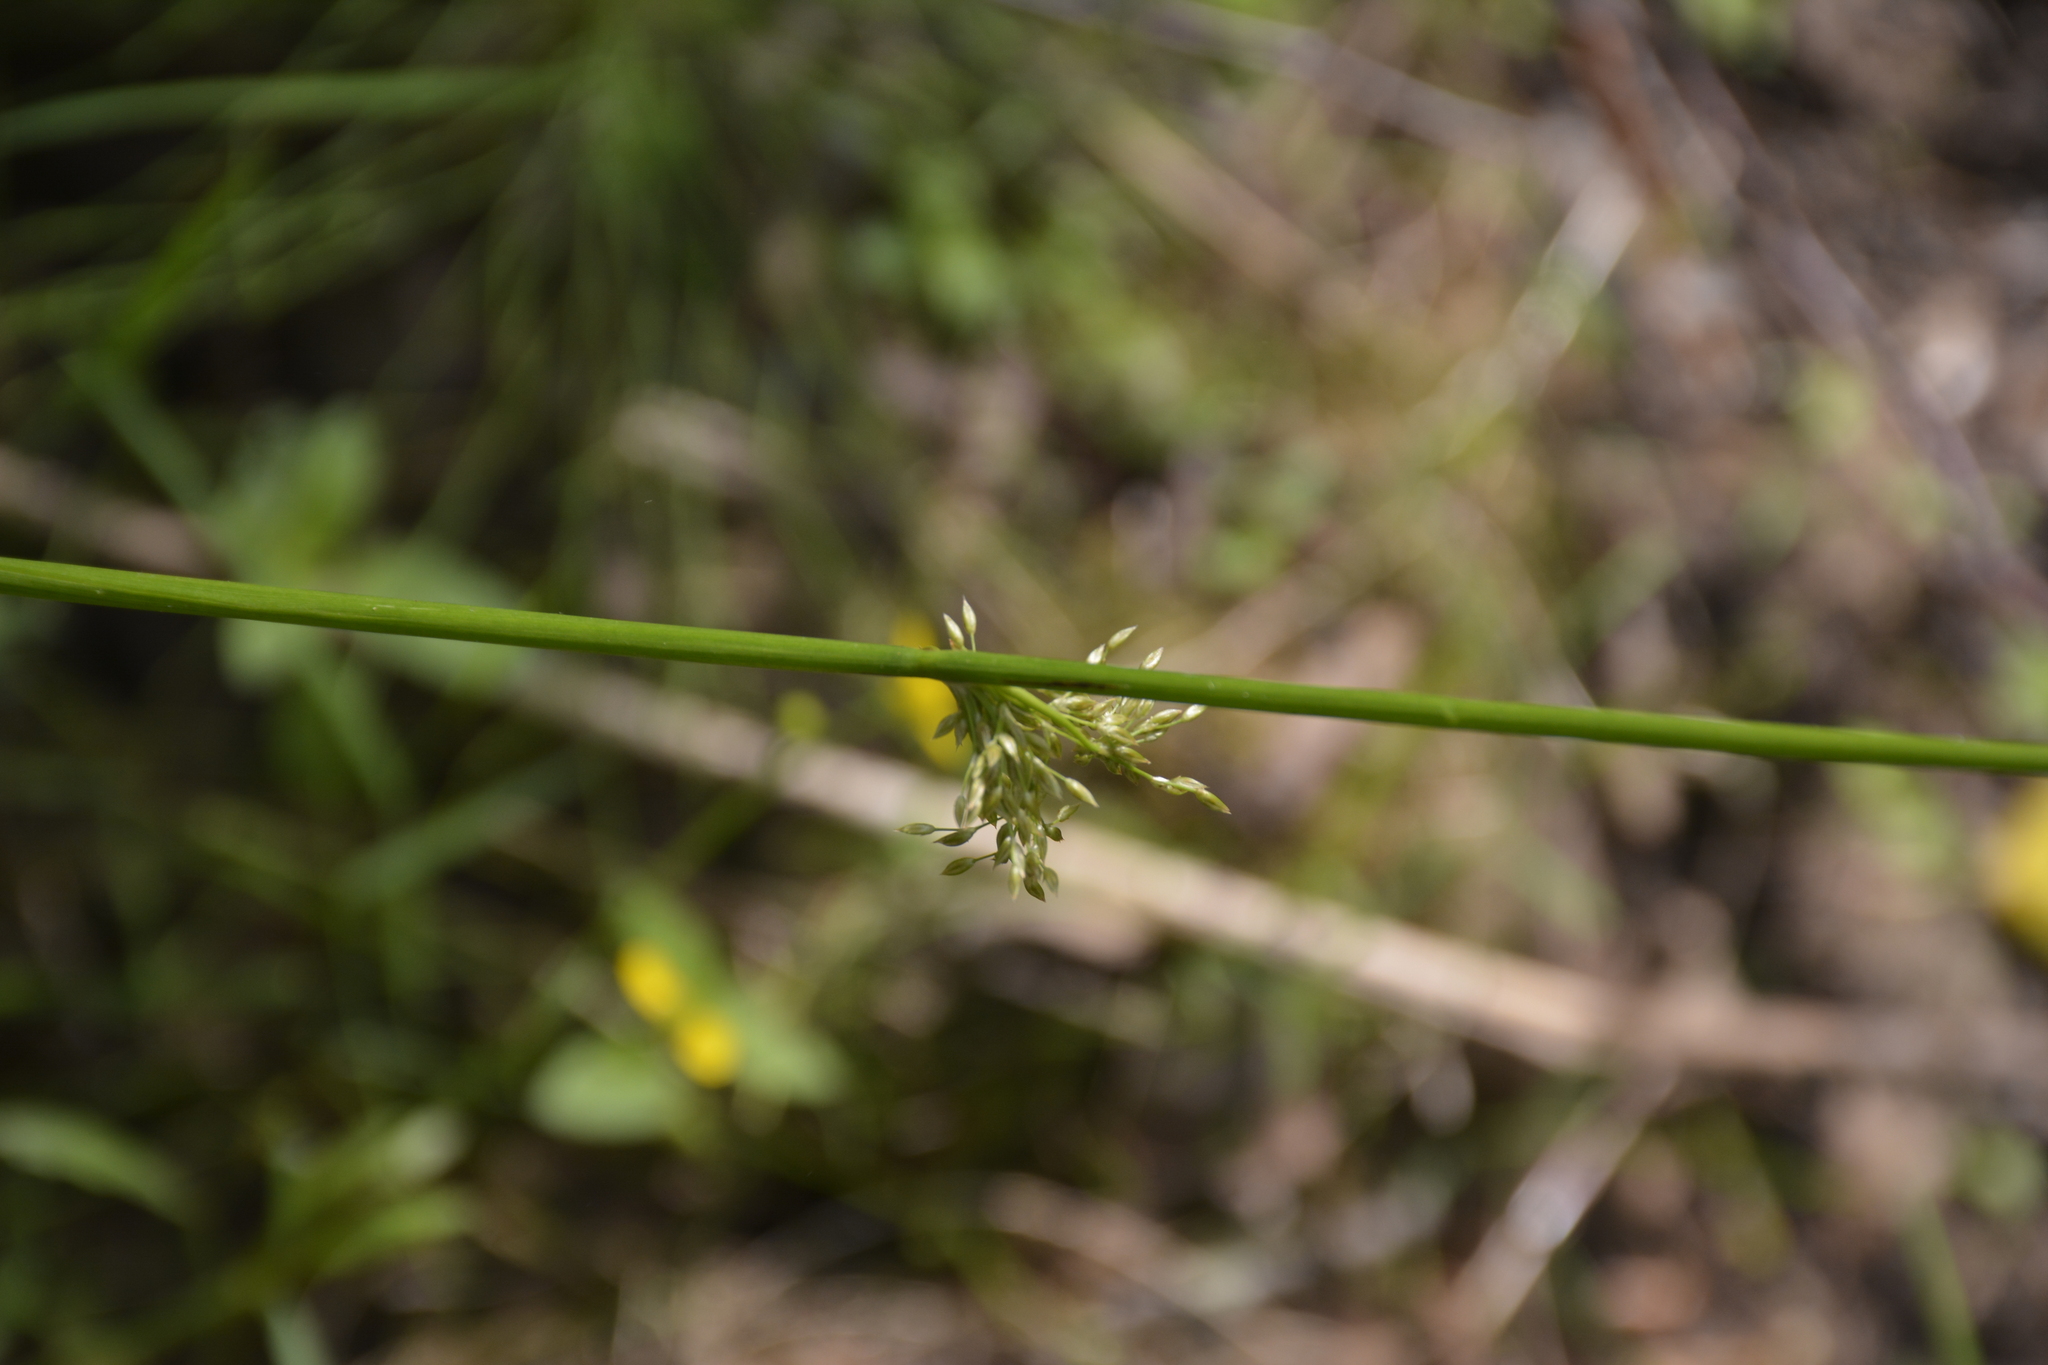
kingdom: Plantae
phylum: Tracheophyta
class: Liliopsida
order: Poales
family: Juncaceae
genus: Juncus
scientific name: Juncus effusus
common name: Soft rush
